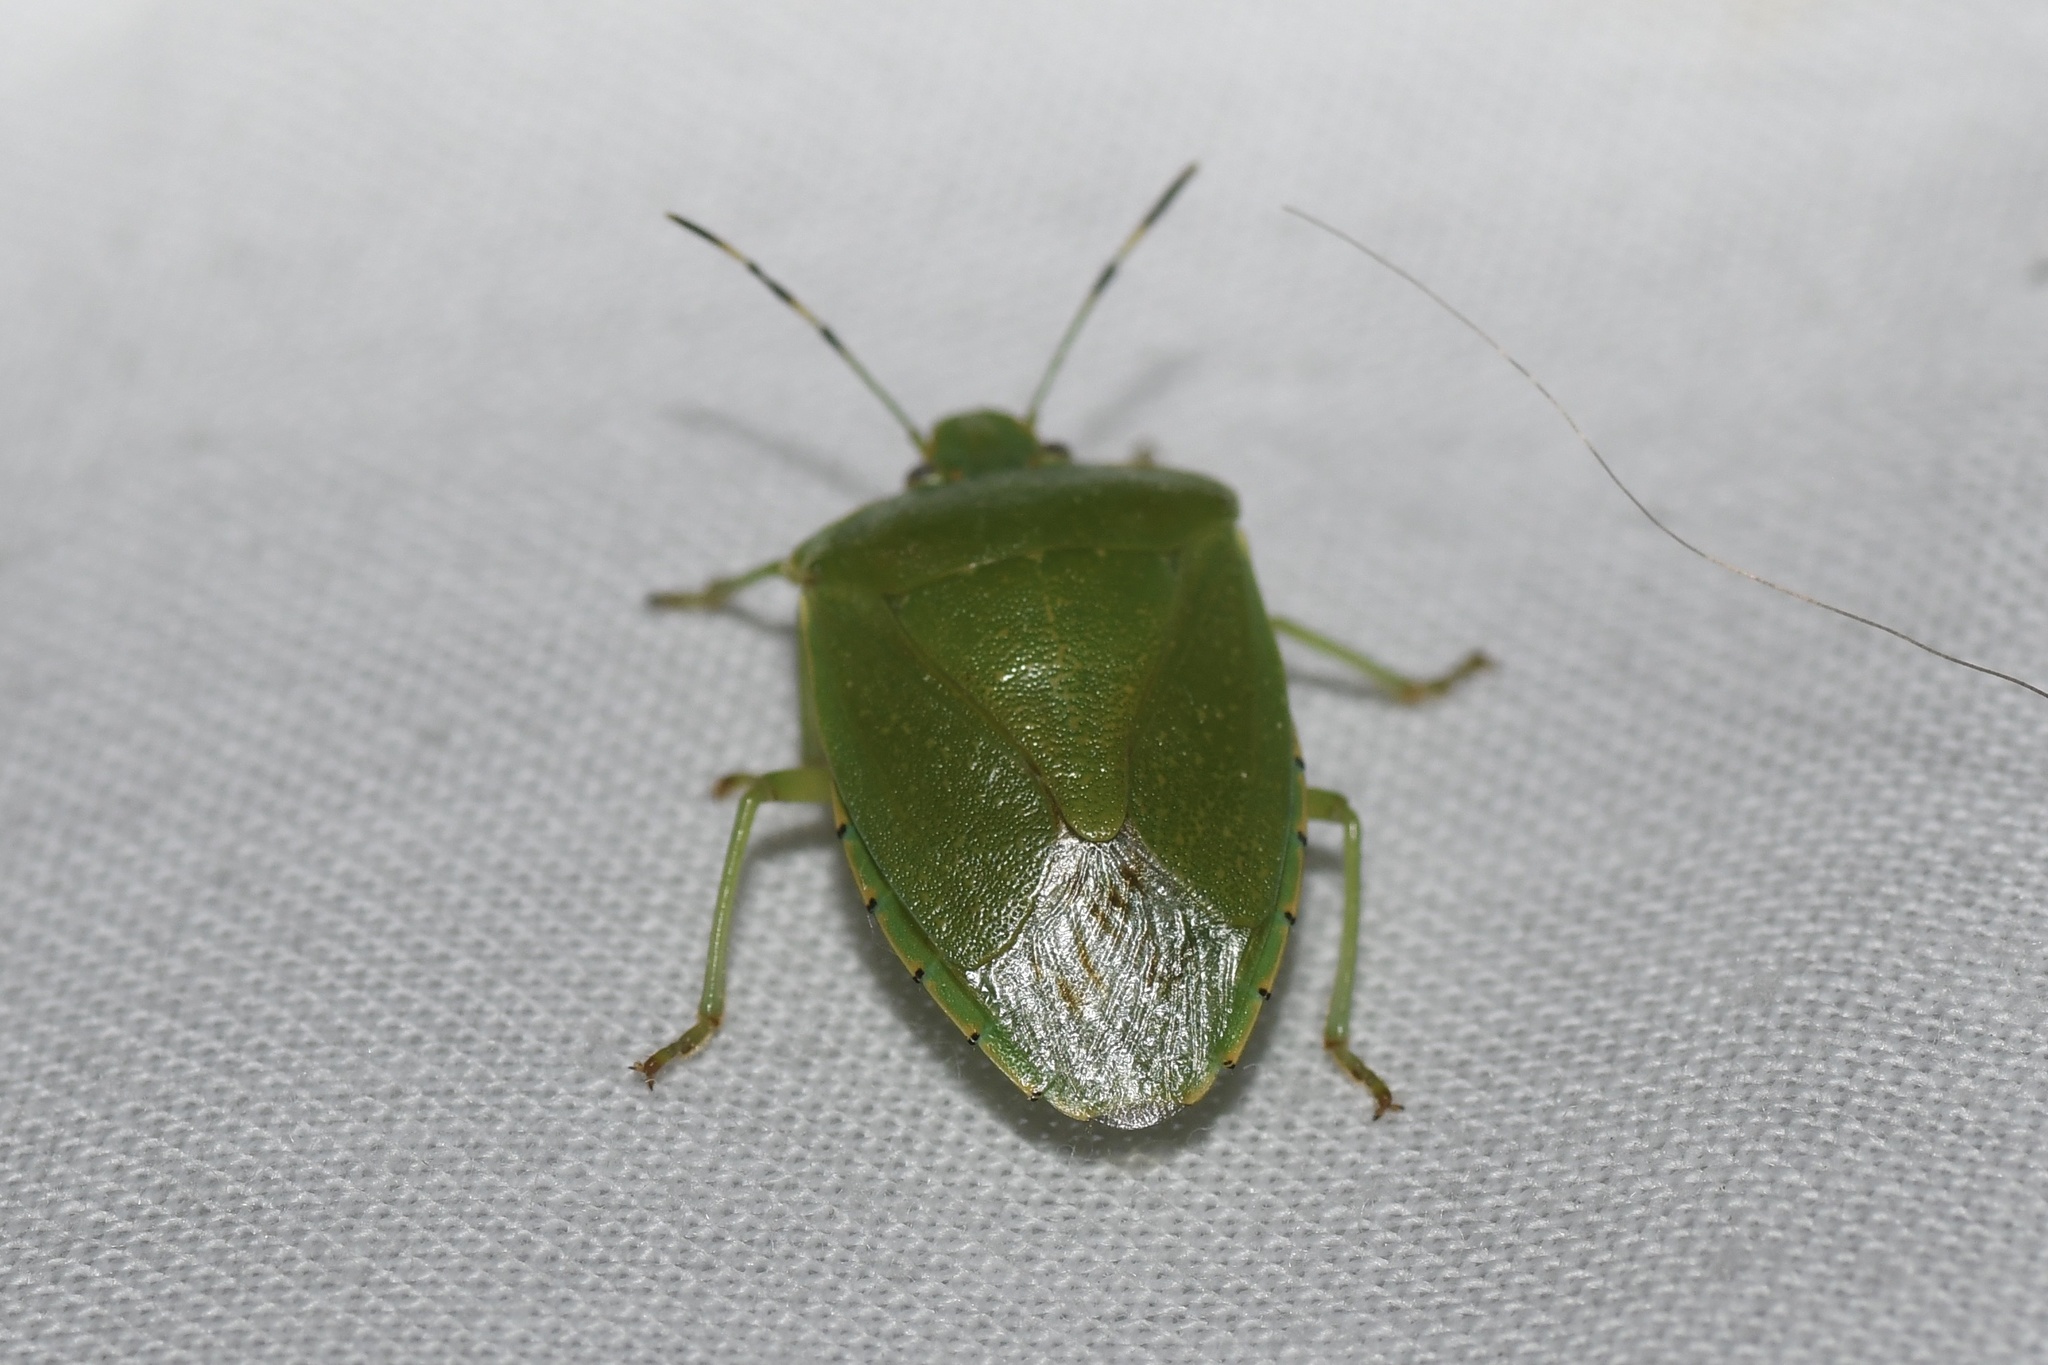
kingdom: Animalia
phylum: Arthropoda
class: Insecta
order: Hemiptera
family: Pentatomidae
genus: Chinavia
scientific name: Chinavia hilaris
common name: Green stink bug
